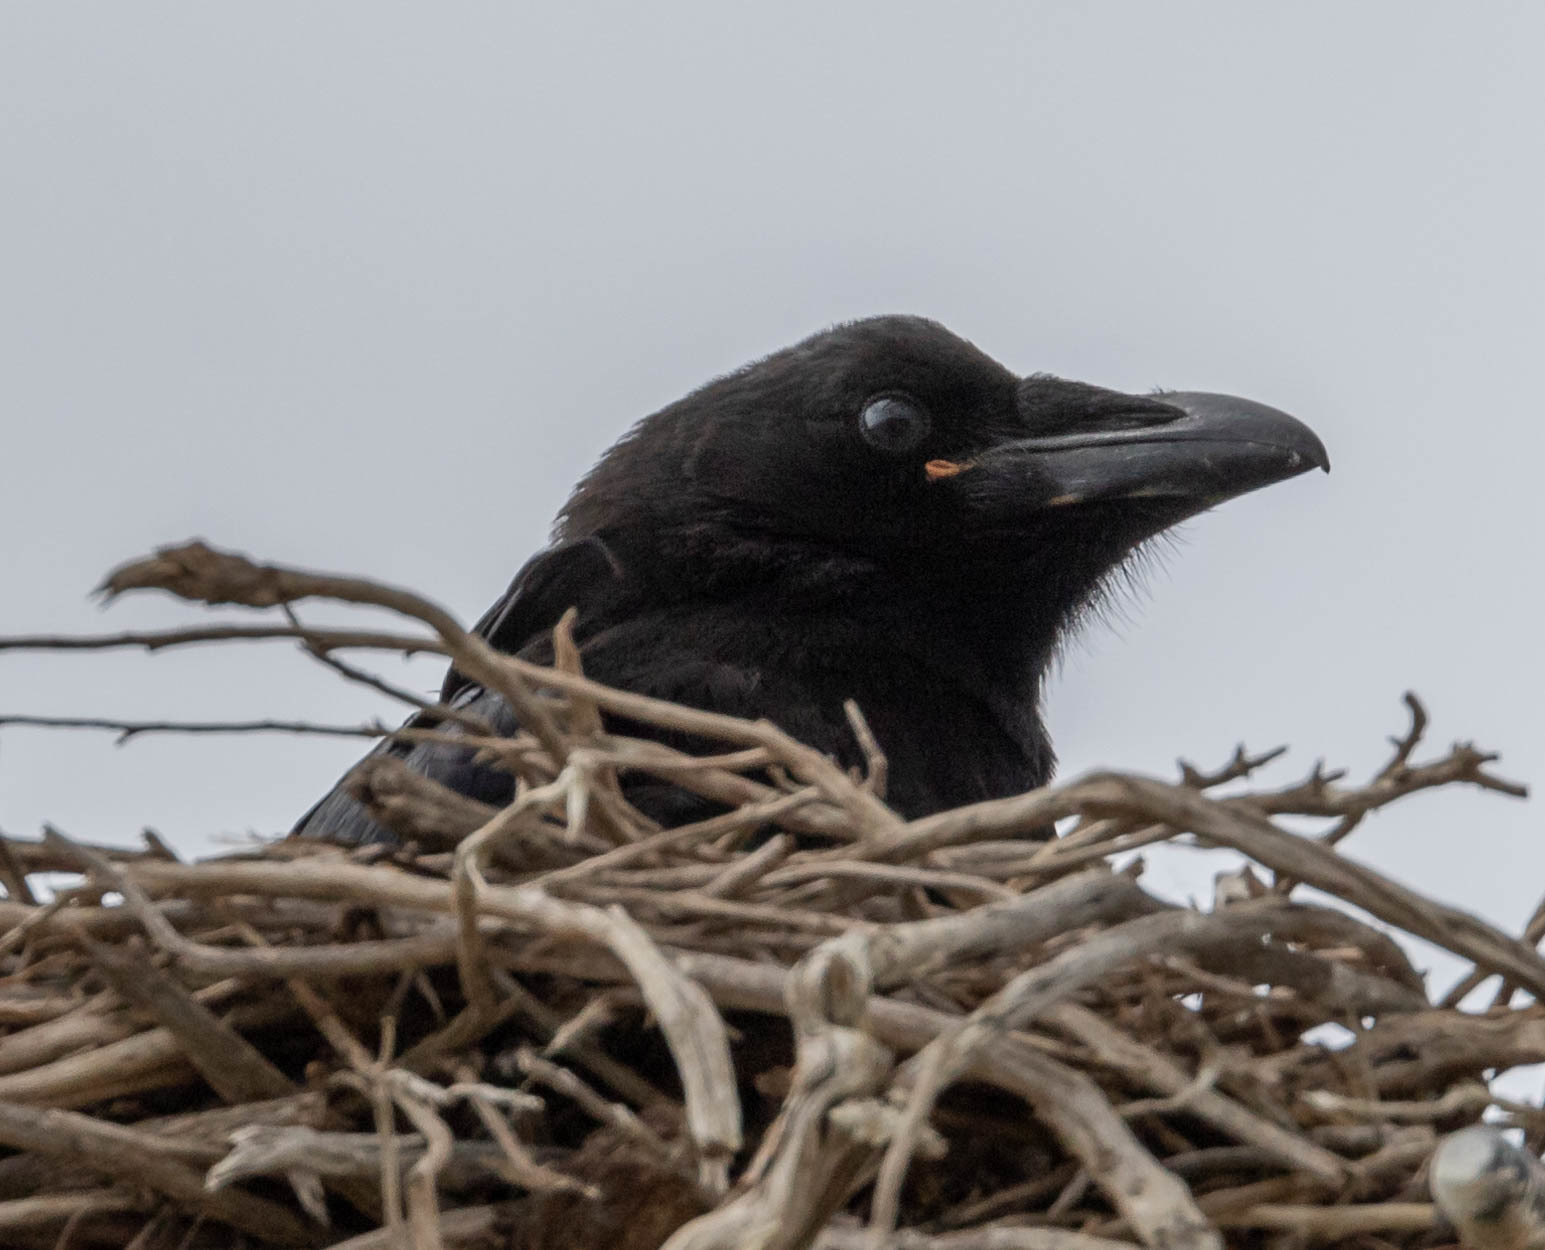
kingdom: Animalia
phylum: Chordata
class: Aves
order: Passeriformes
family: Corvidae
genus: Corvus
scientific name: Corvus corax
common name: Common raven
